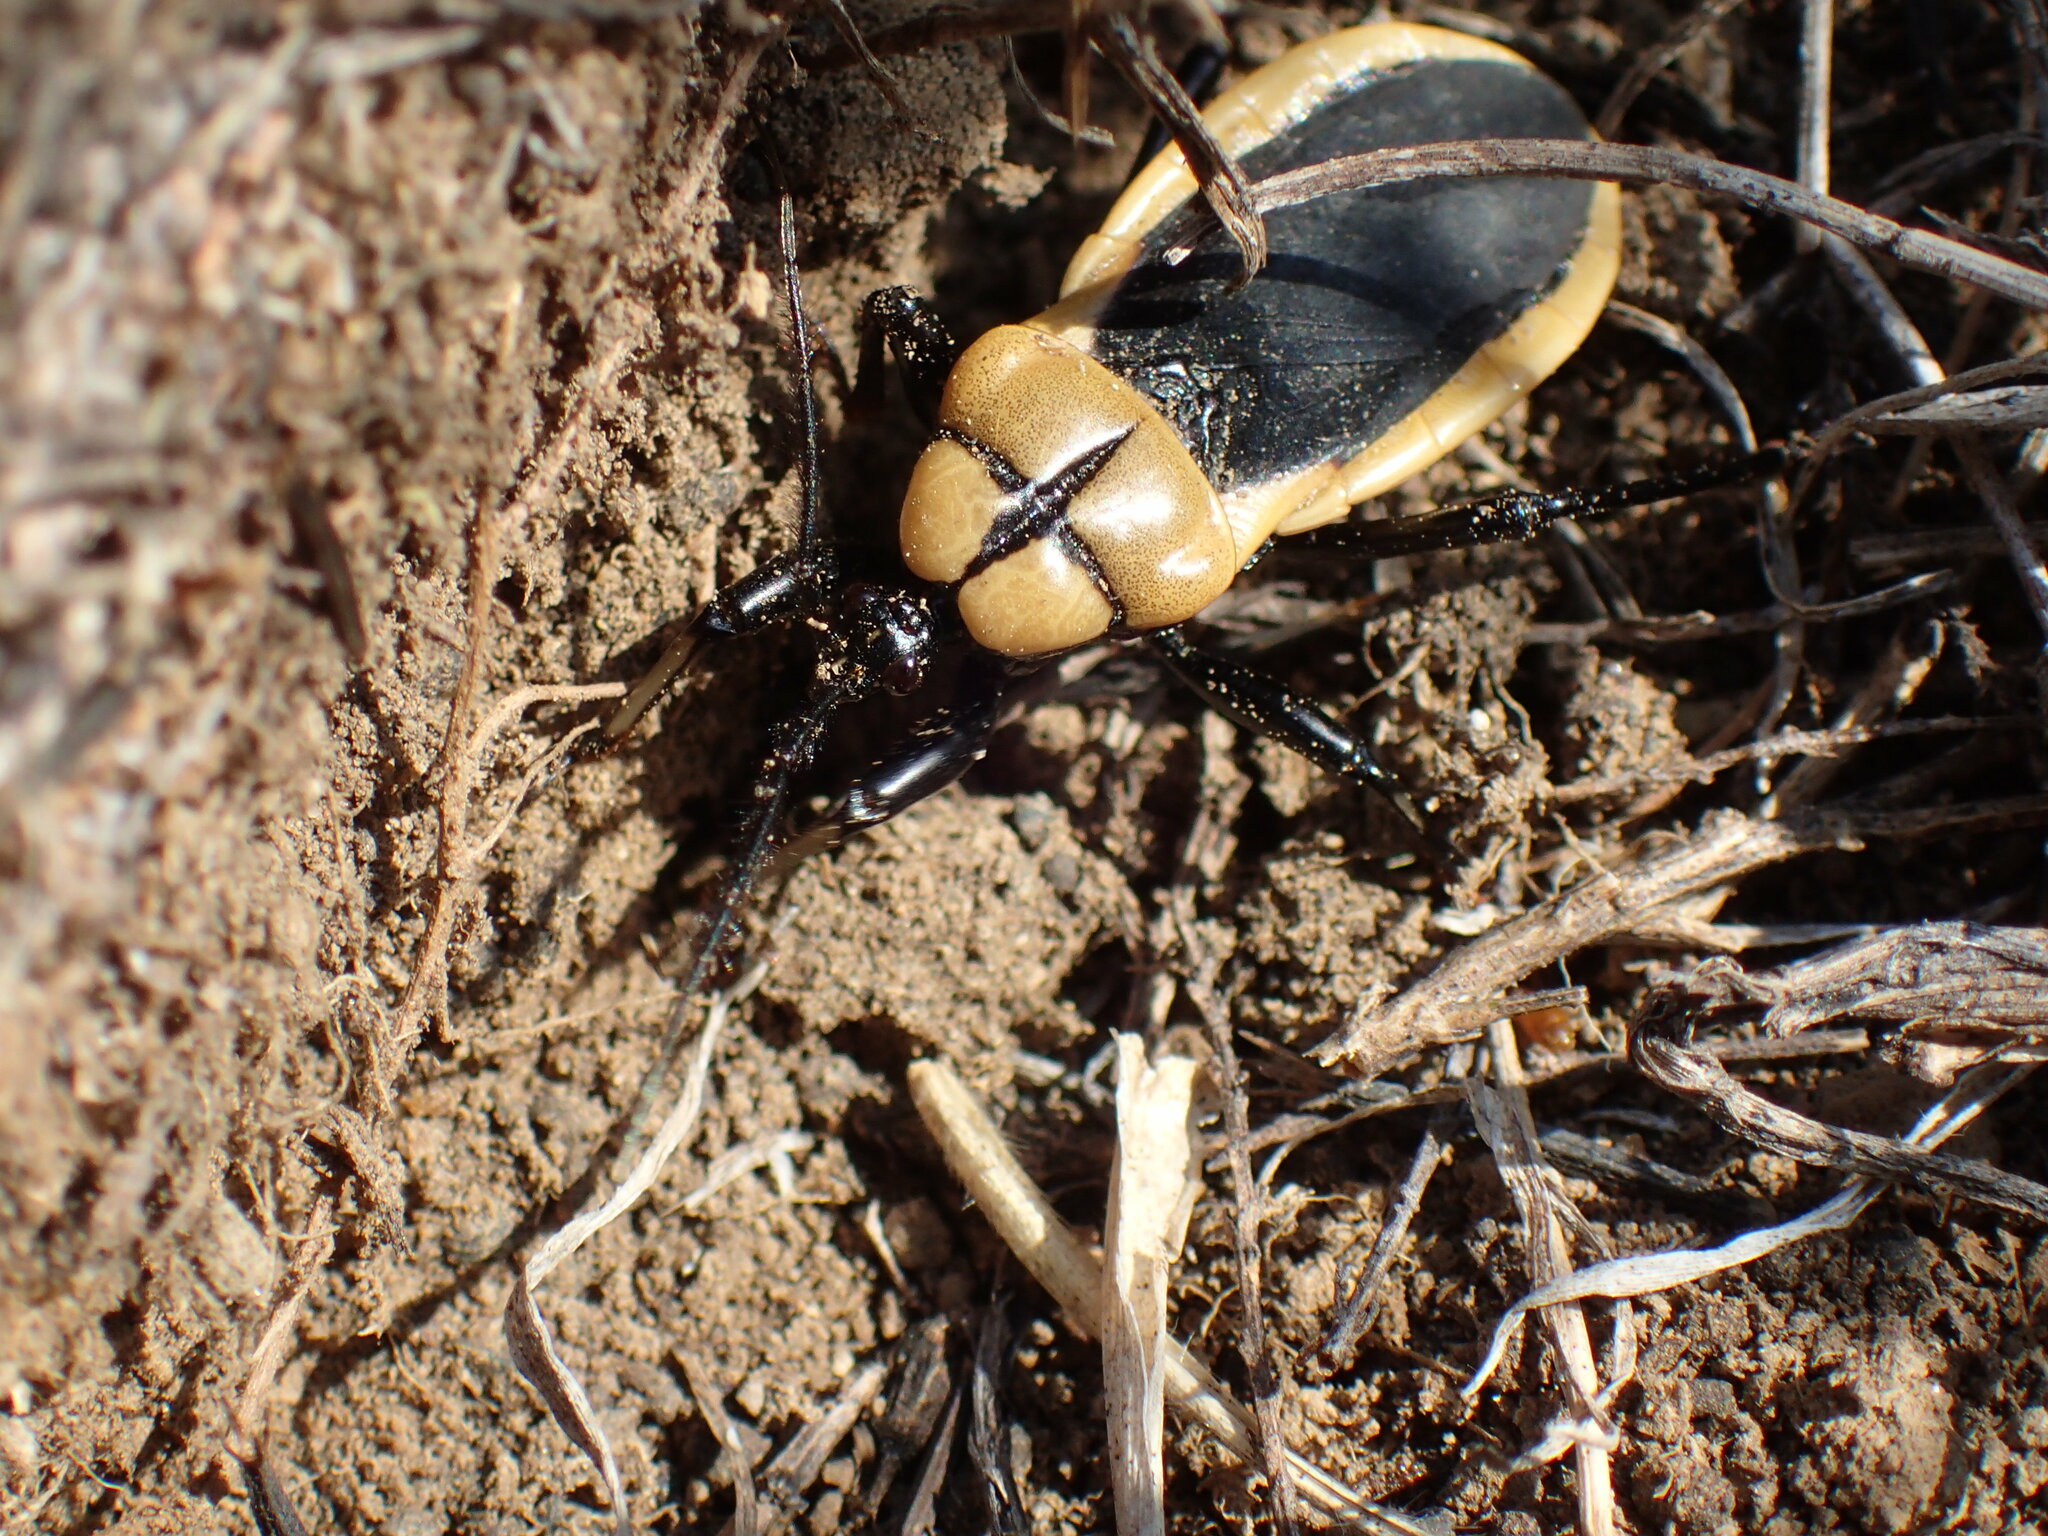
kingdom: Animalia
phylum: Arthropoda
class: Insecta
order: Hemiptera
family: Reduviidae
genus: Ectrichodia
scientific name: Ectrichodia crux
